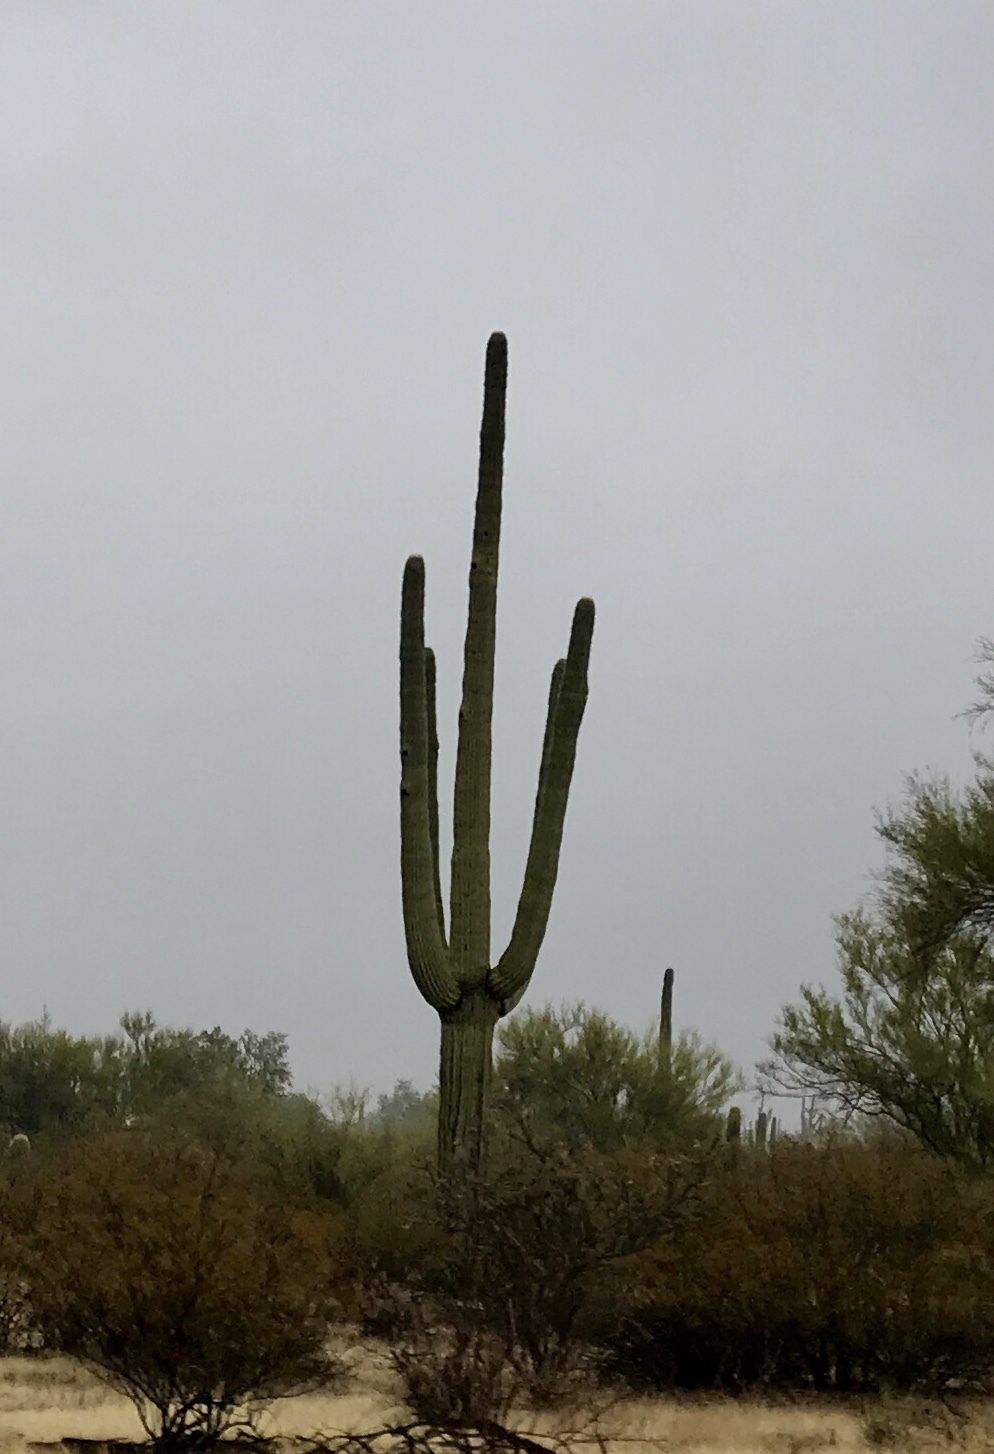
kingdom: Plantae
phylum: Tracheophyta
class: Magnoliopsida
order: Caryophyllales
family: Cactaceae
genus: Carnegiea
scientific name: Carnegiea gigantea
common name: Saguaro
